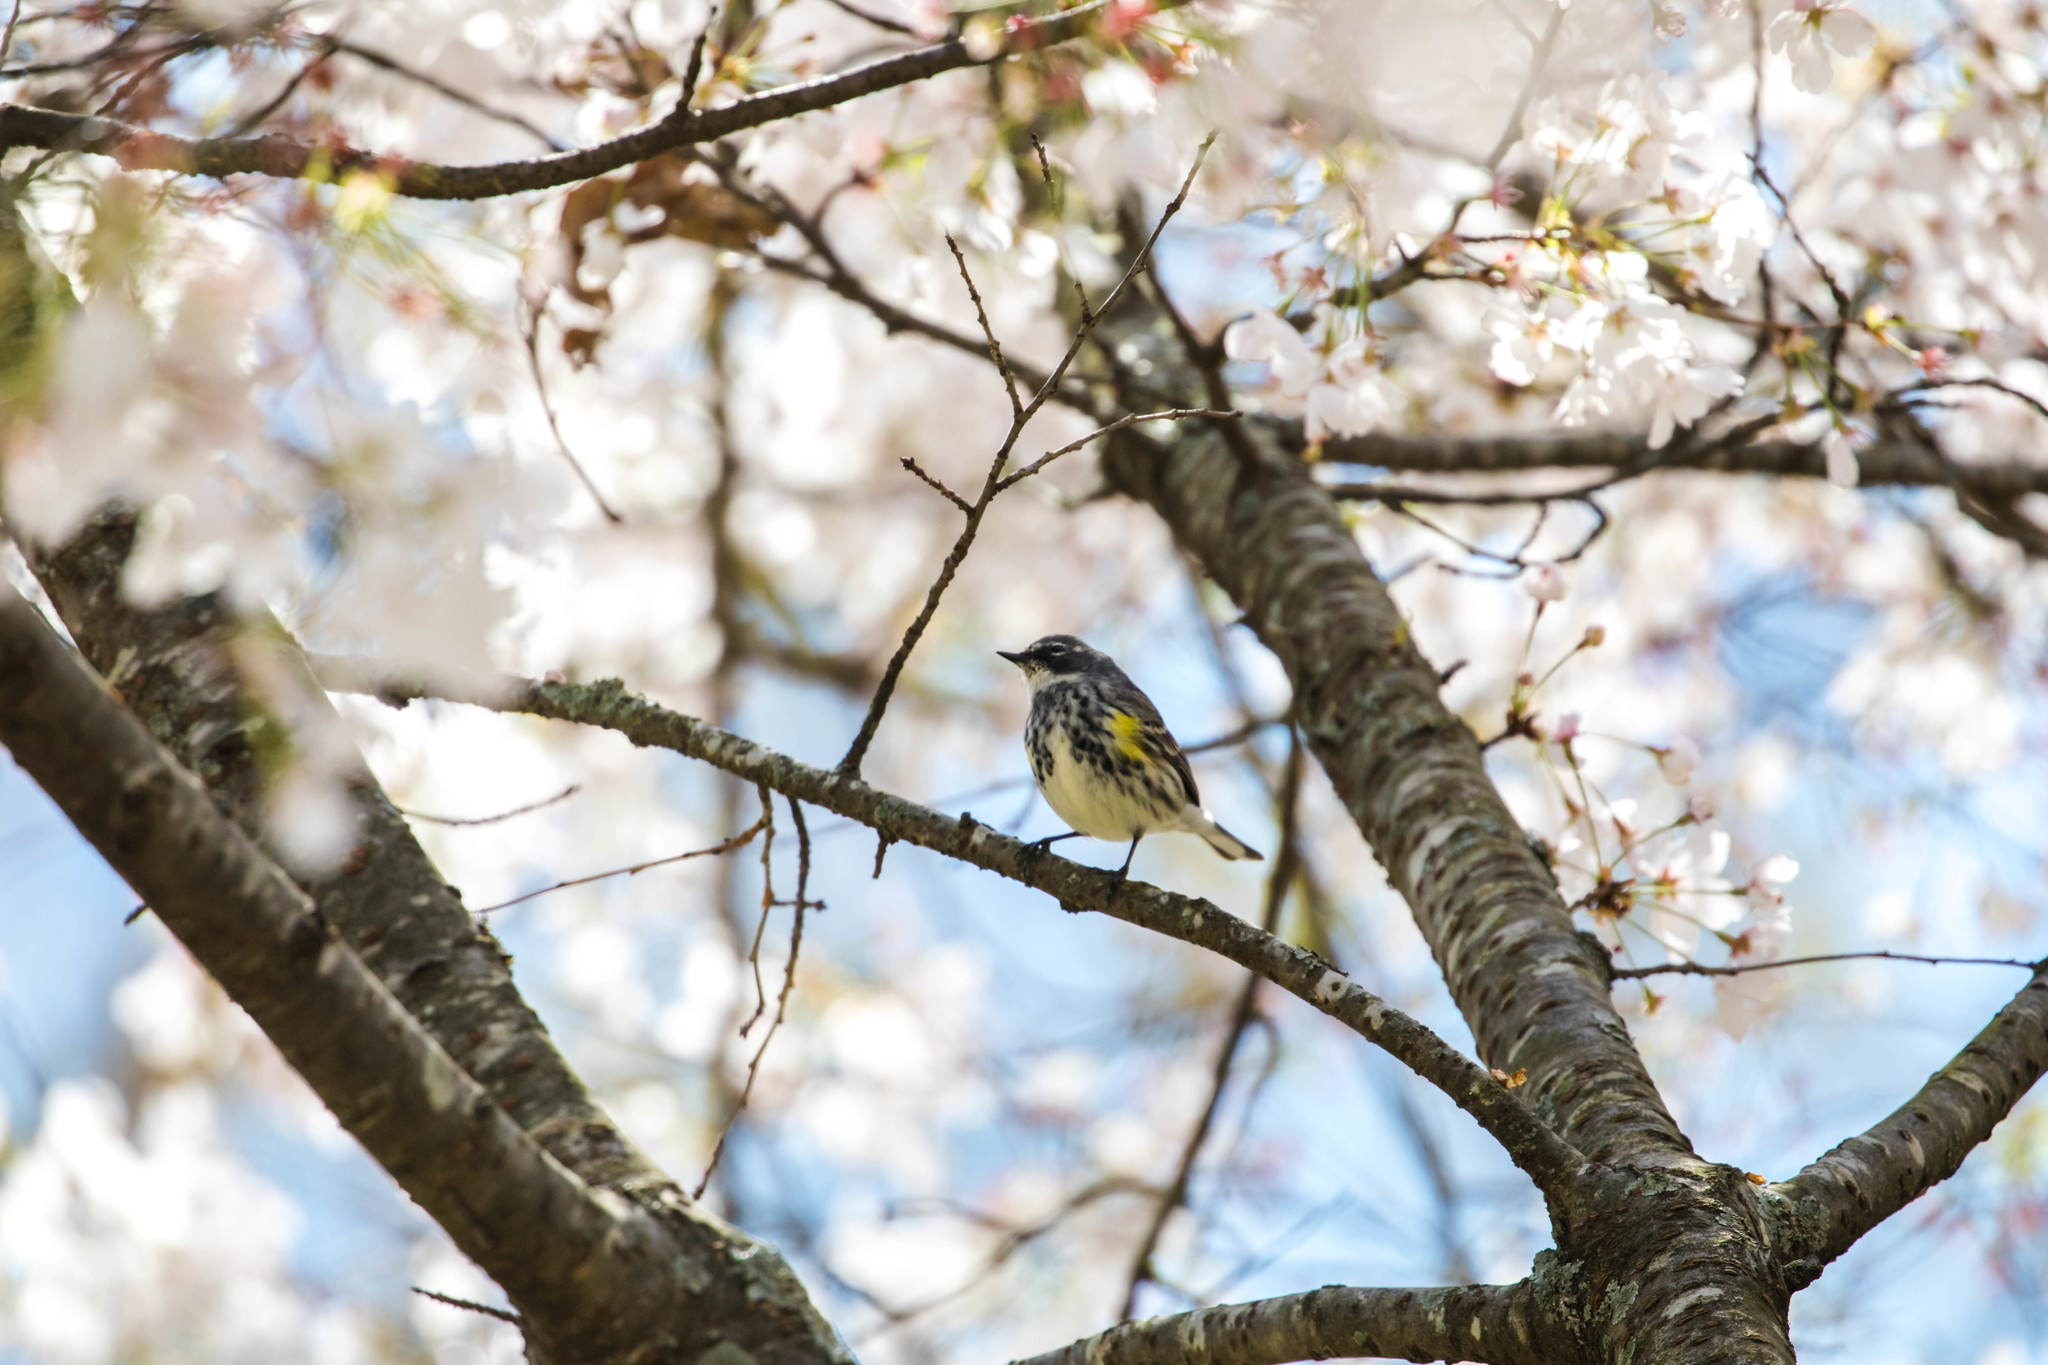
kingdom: Animalia
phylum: Chordata
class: Aves
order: Passeriformes
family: Parulidae
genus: Setophaga
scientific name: Setophaga coronata
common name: Myrtle warbler
